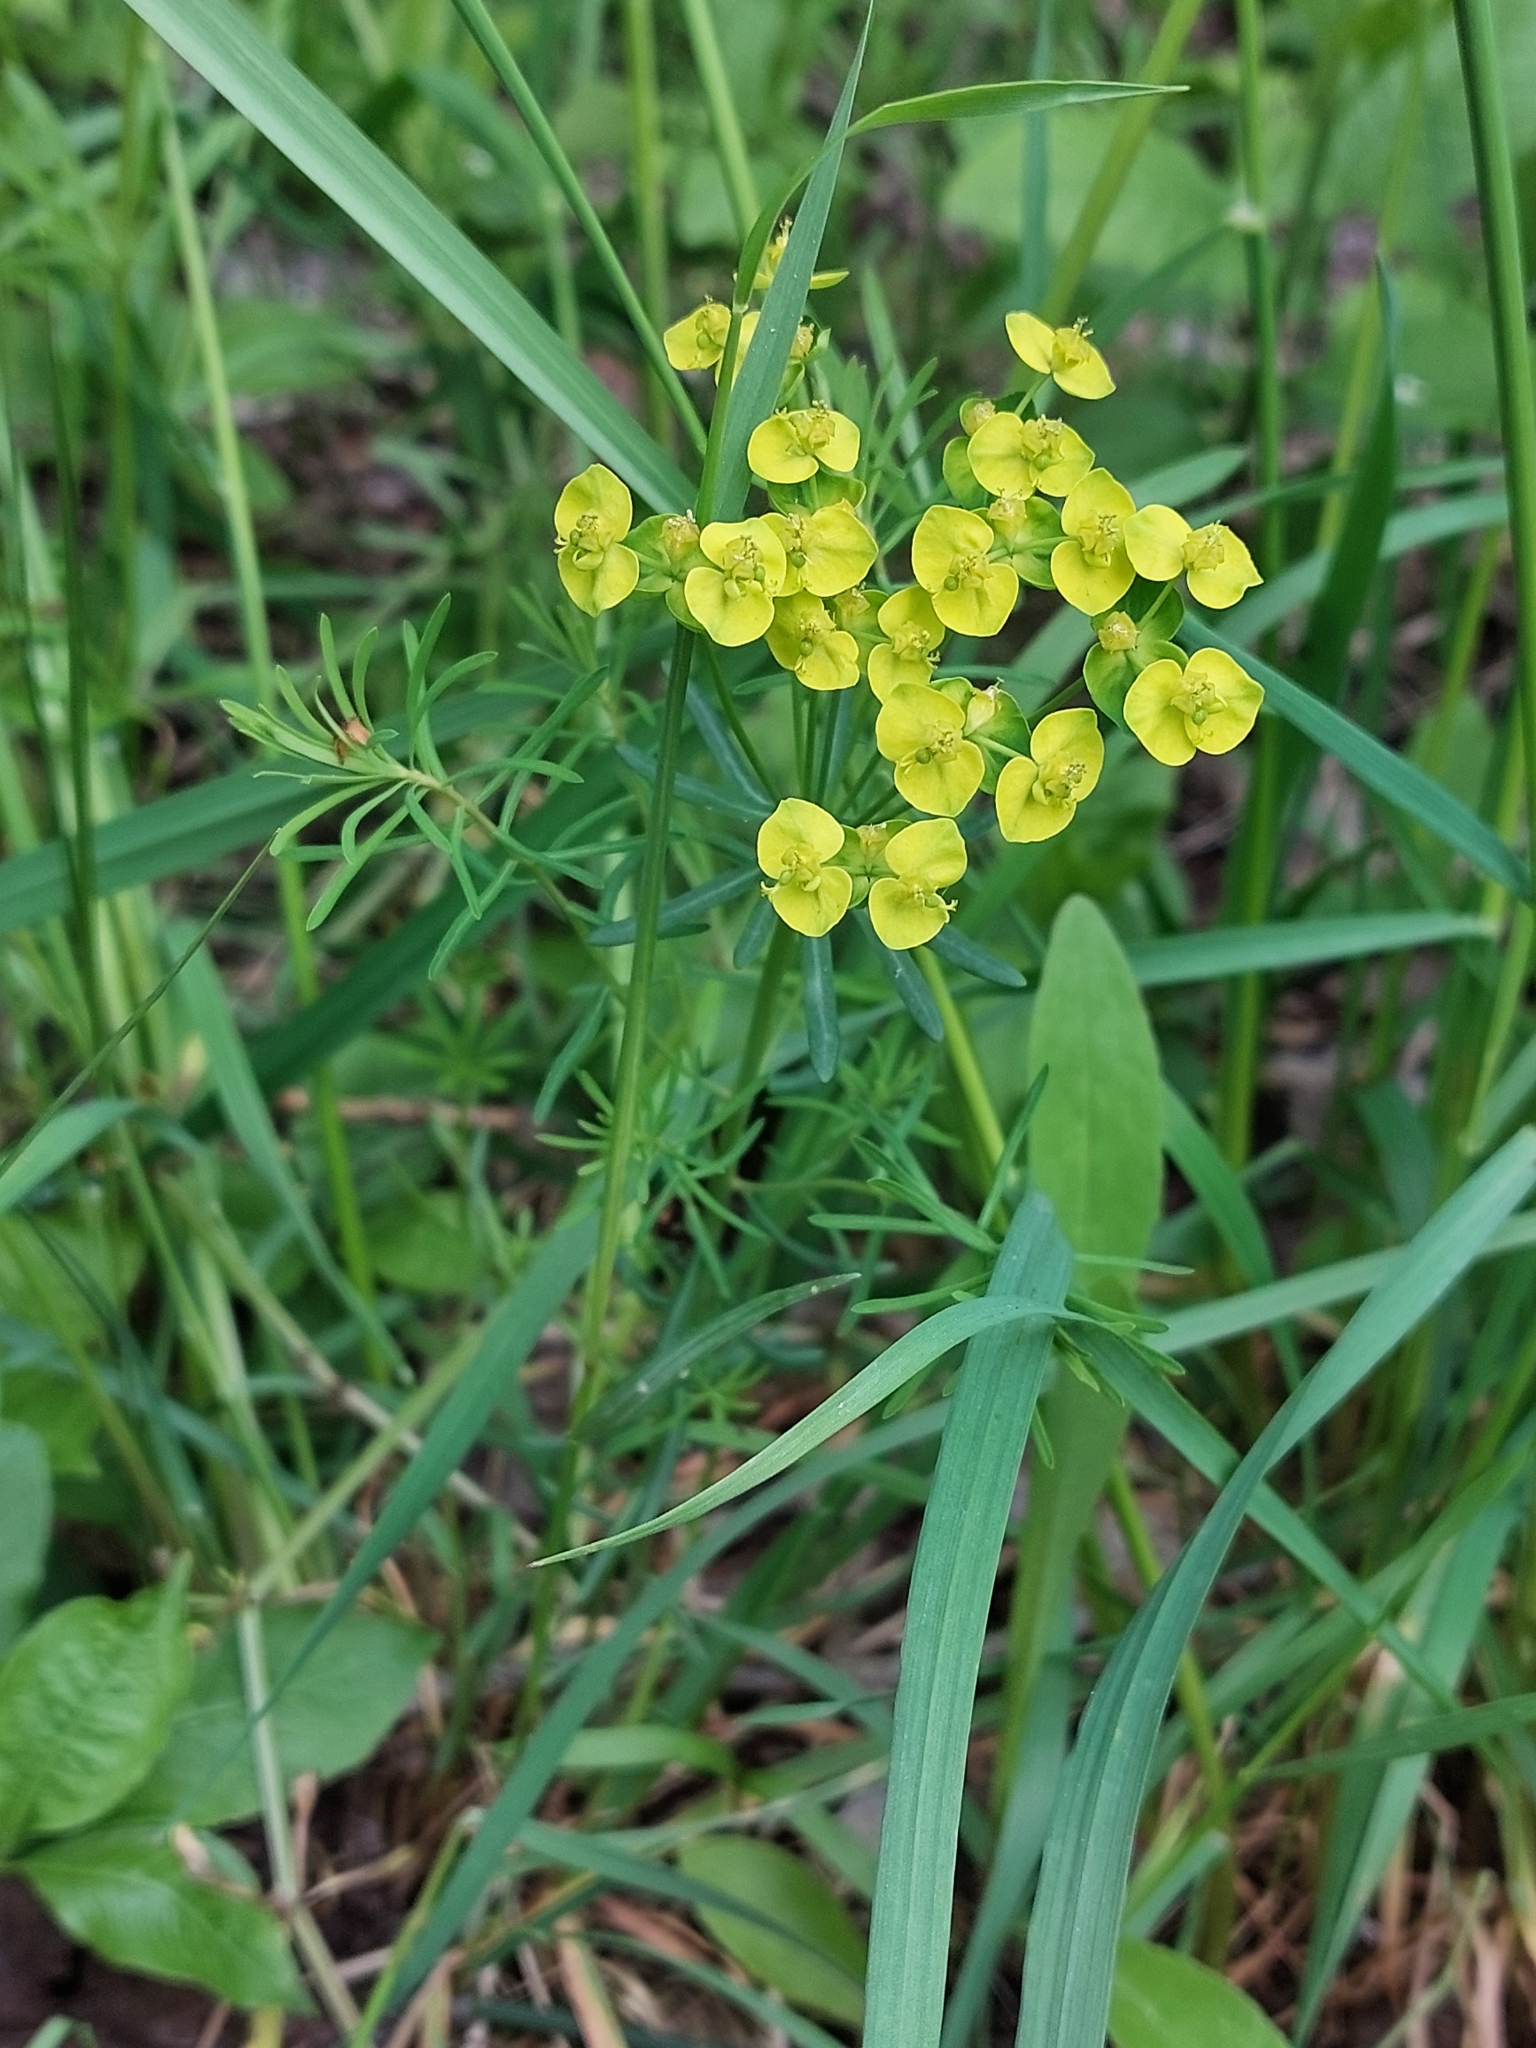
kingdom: Plantae
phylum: Tracheophyta
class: Magnoliopsida
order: Malpighiales
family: Euphorbiaceae
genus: Euphorbia
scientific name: Euphorbia cyparissias
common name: Cypress spurge
